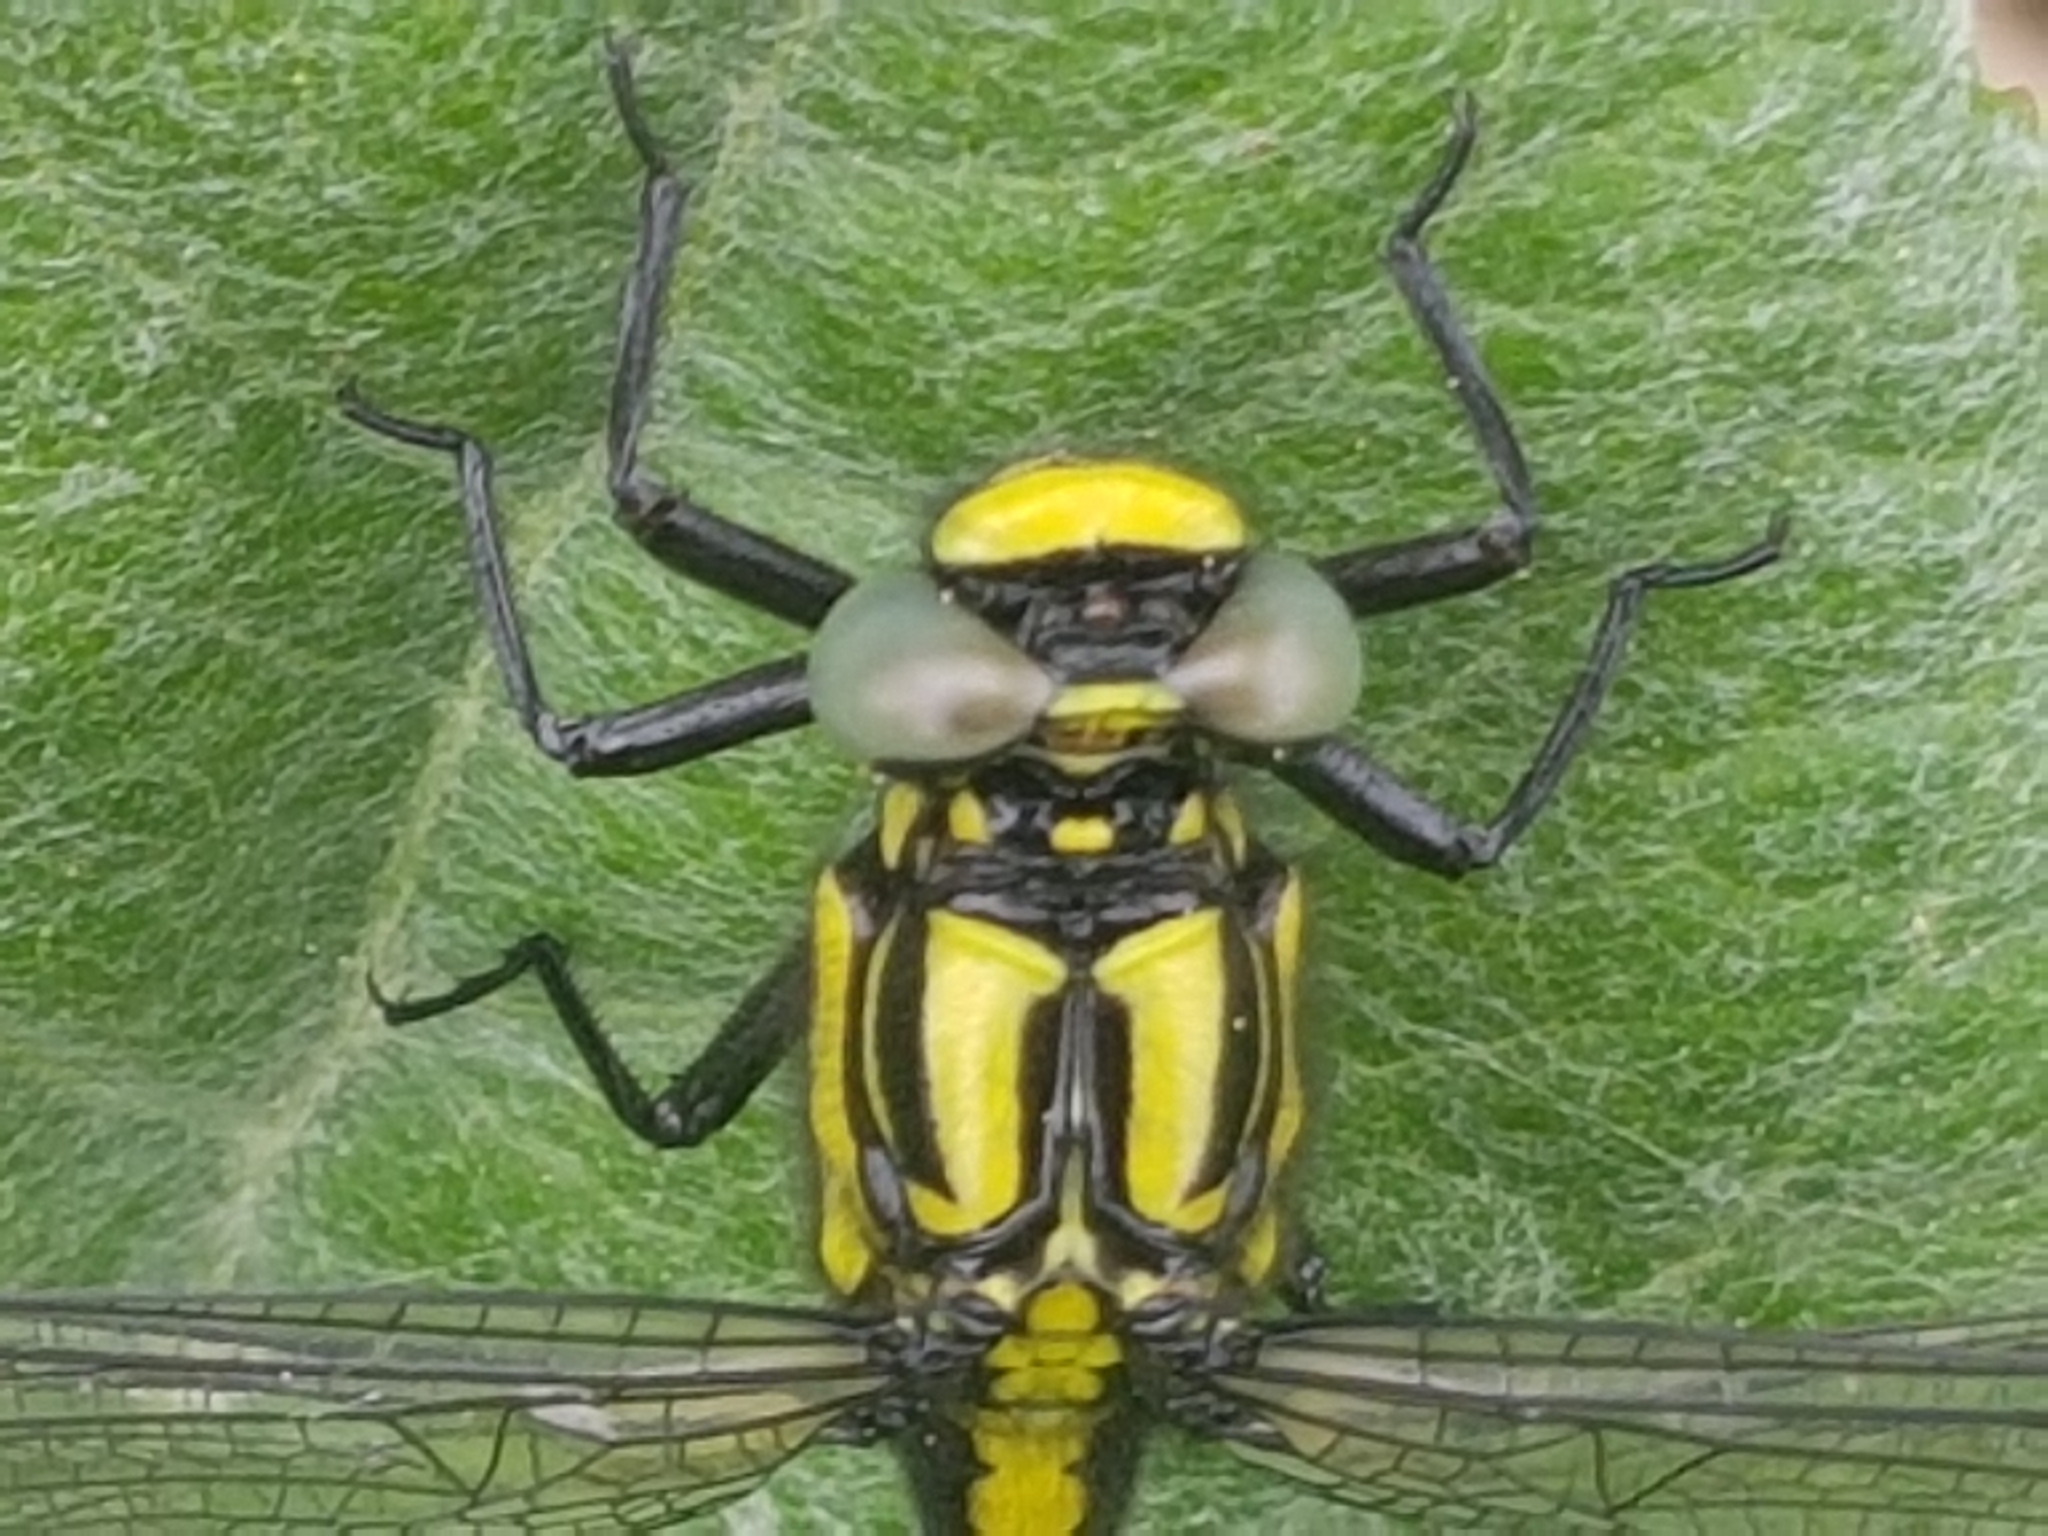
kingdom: Animalia
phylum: Arthropoda
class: Insecta
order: Odonata
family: Gomphidae
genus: Gomphus
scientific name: Gomphus vulgatissimus
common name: Club-tailed dragonfly
